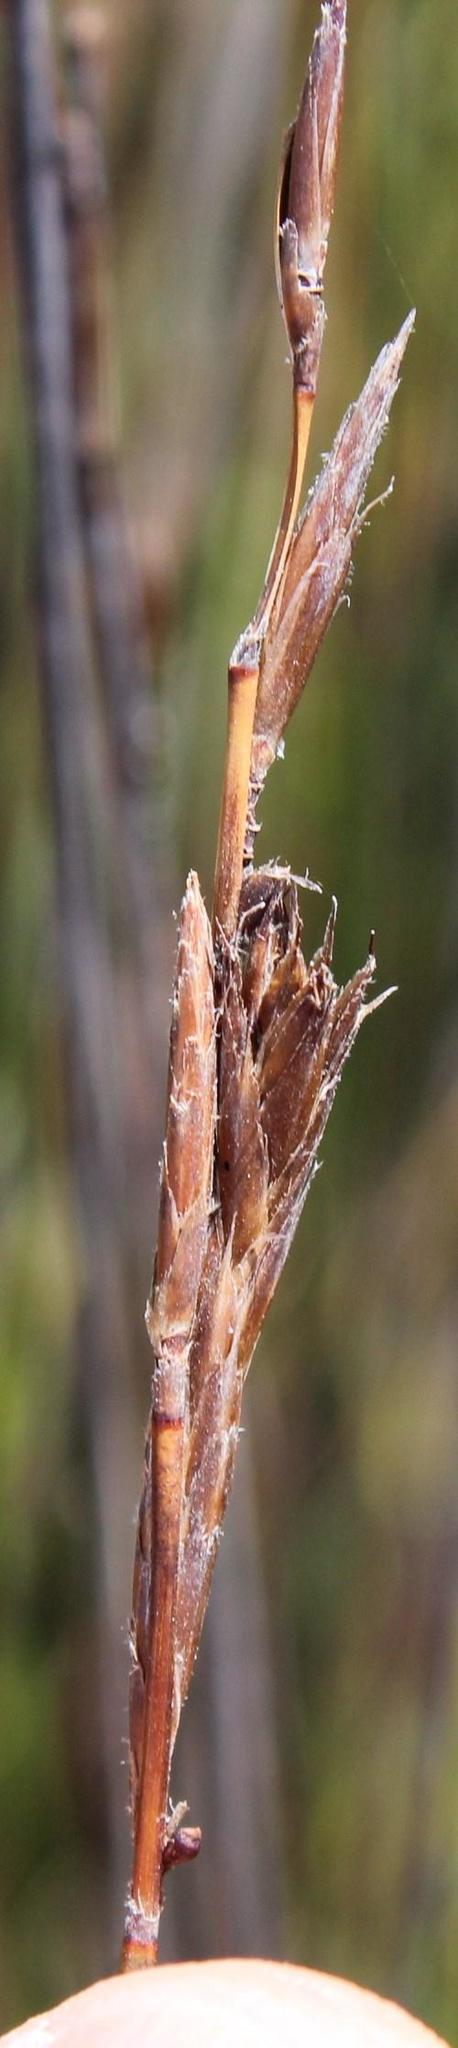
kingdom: Plantae
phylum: Tracheophyta
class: Liliopsida
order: Poales
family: Restionaceae
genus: Thamnochortus
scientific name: Thamnochortus erectus
